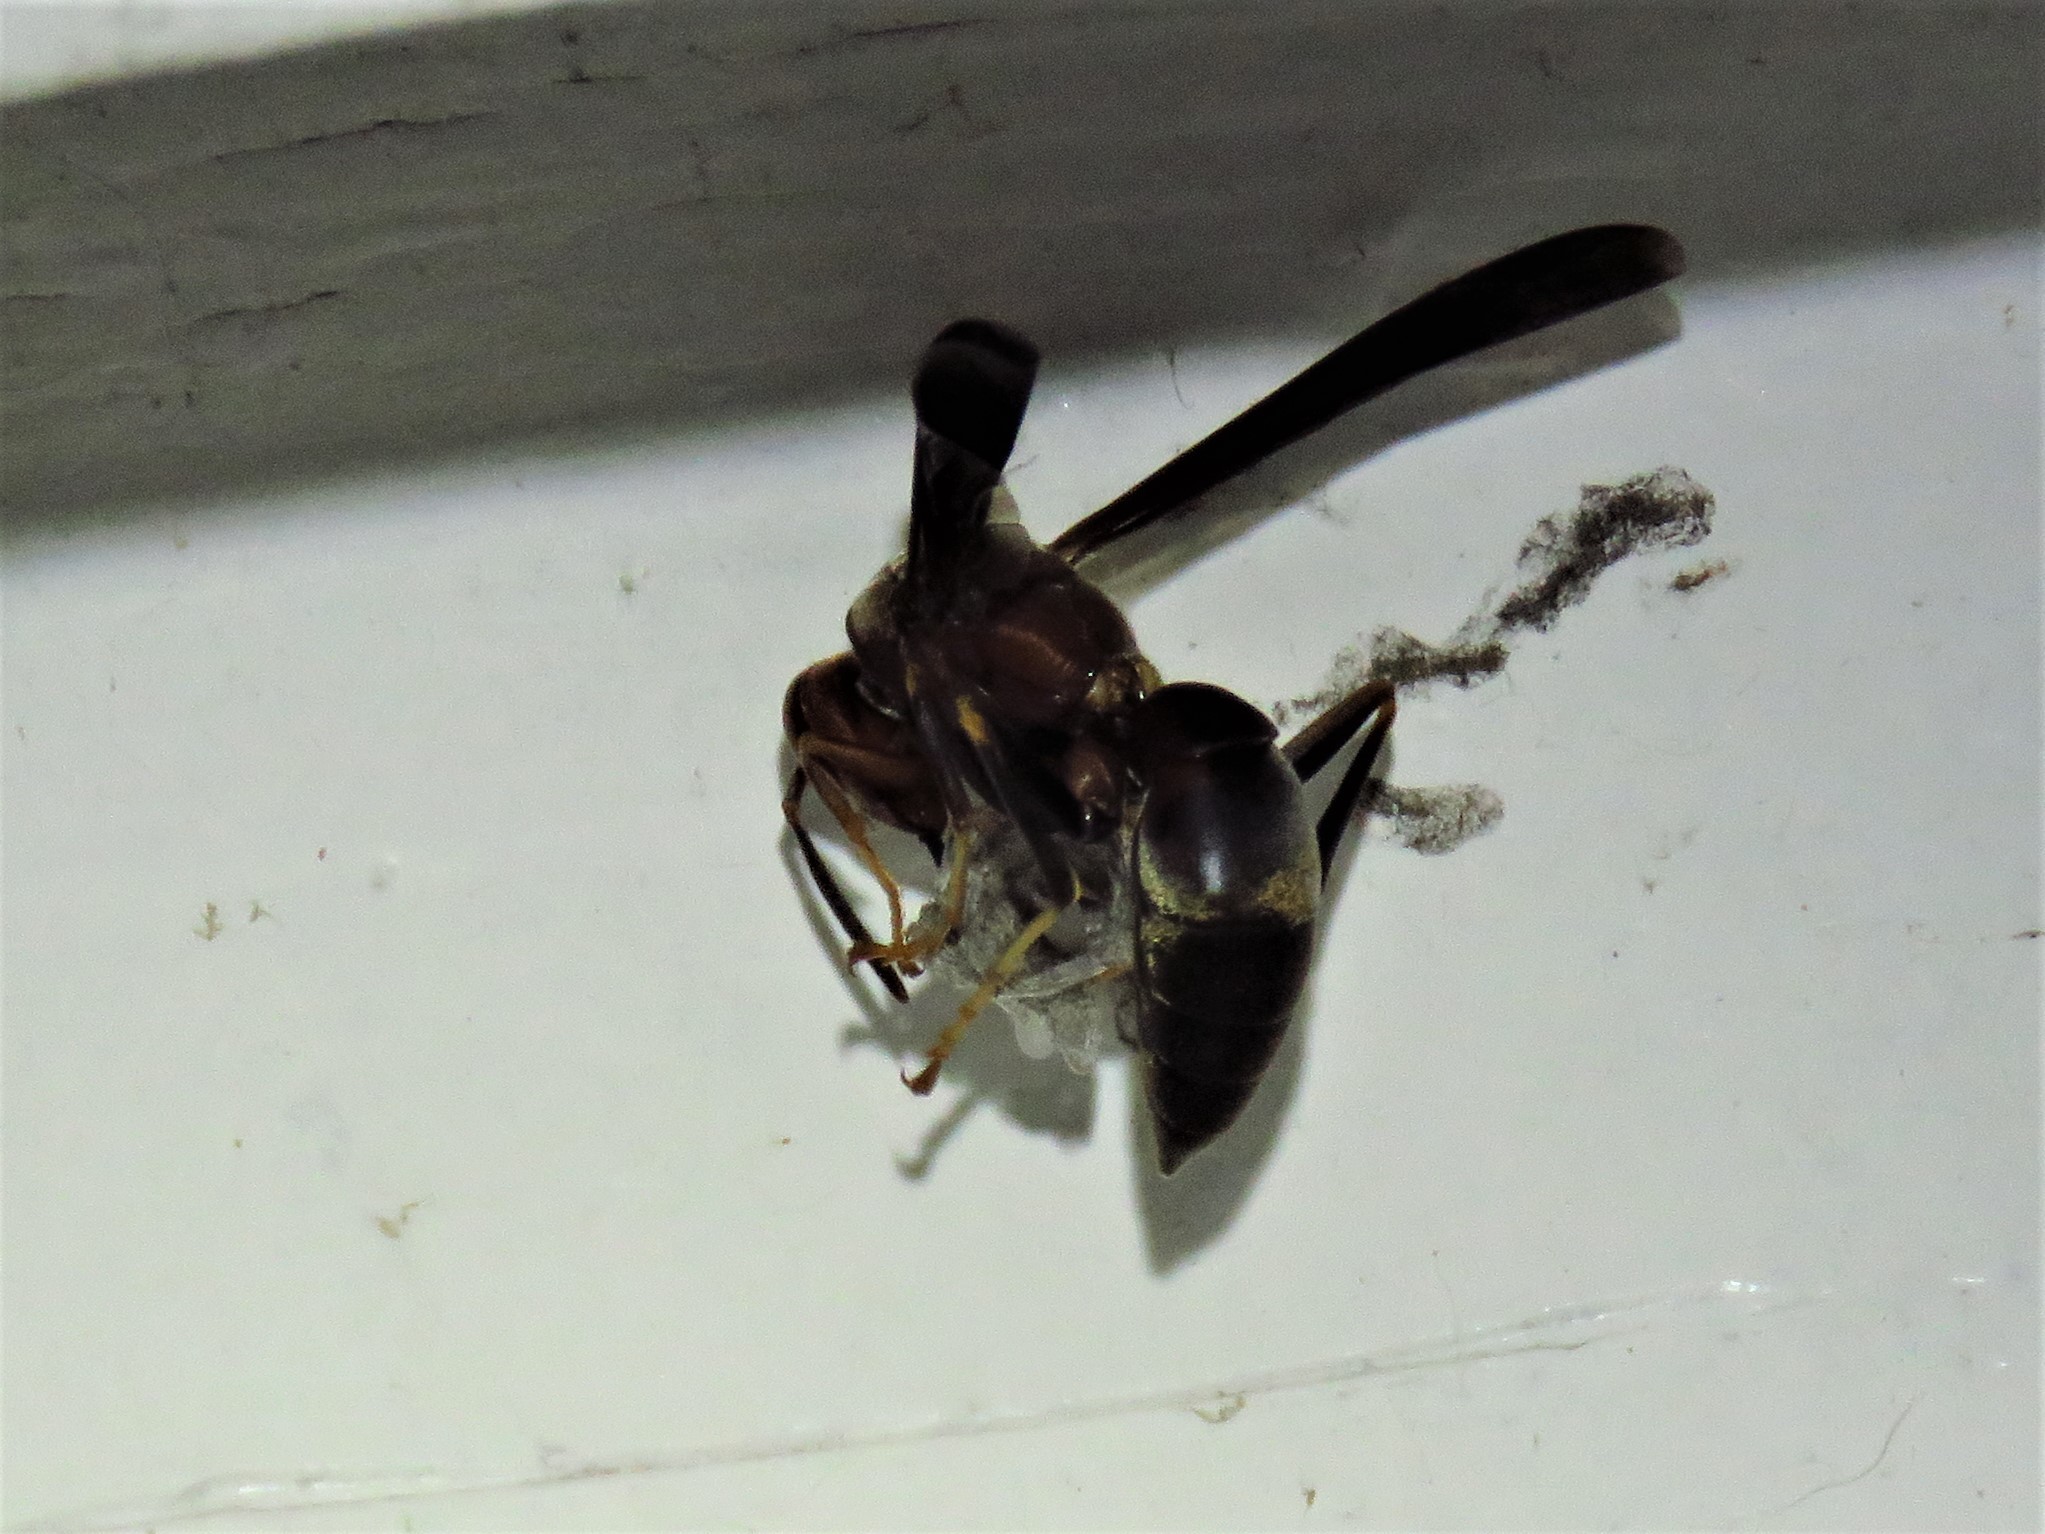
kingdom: Animalia
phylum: Arthropoda
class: Insecta
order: Hymenoptera
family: Eumenidae
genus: Polistes
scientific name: Polistes metricus
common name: Metric paper wasp
